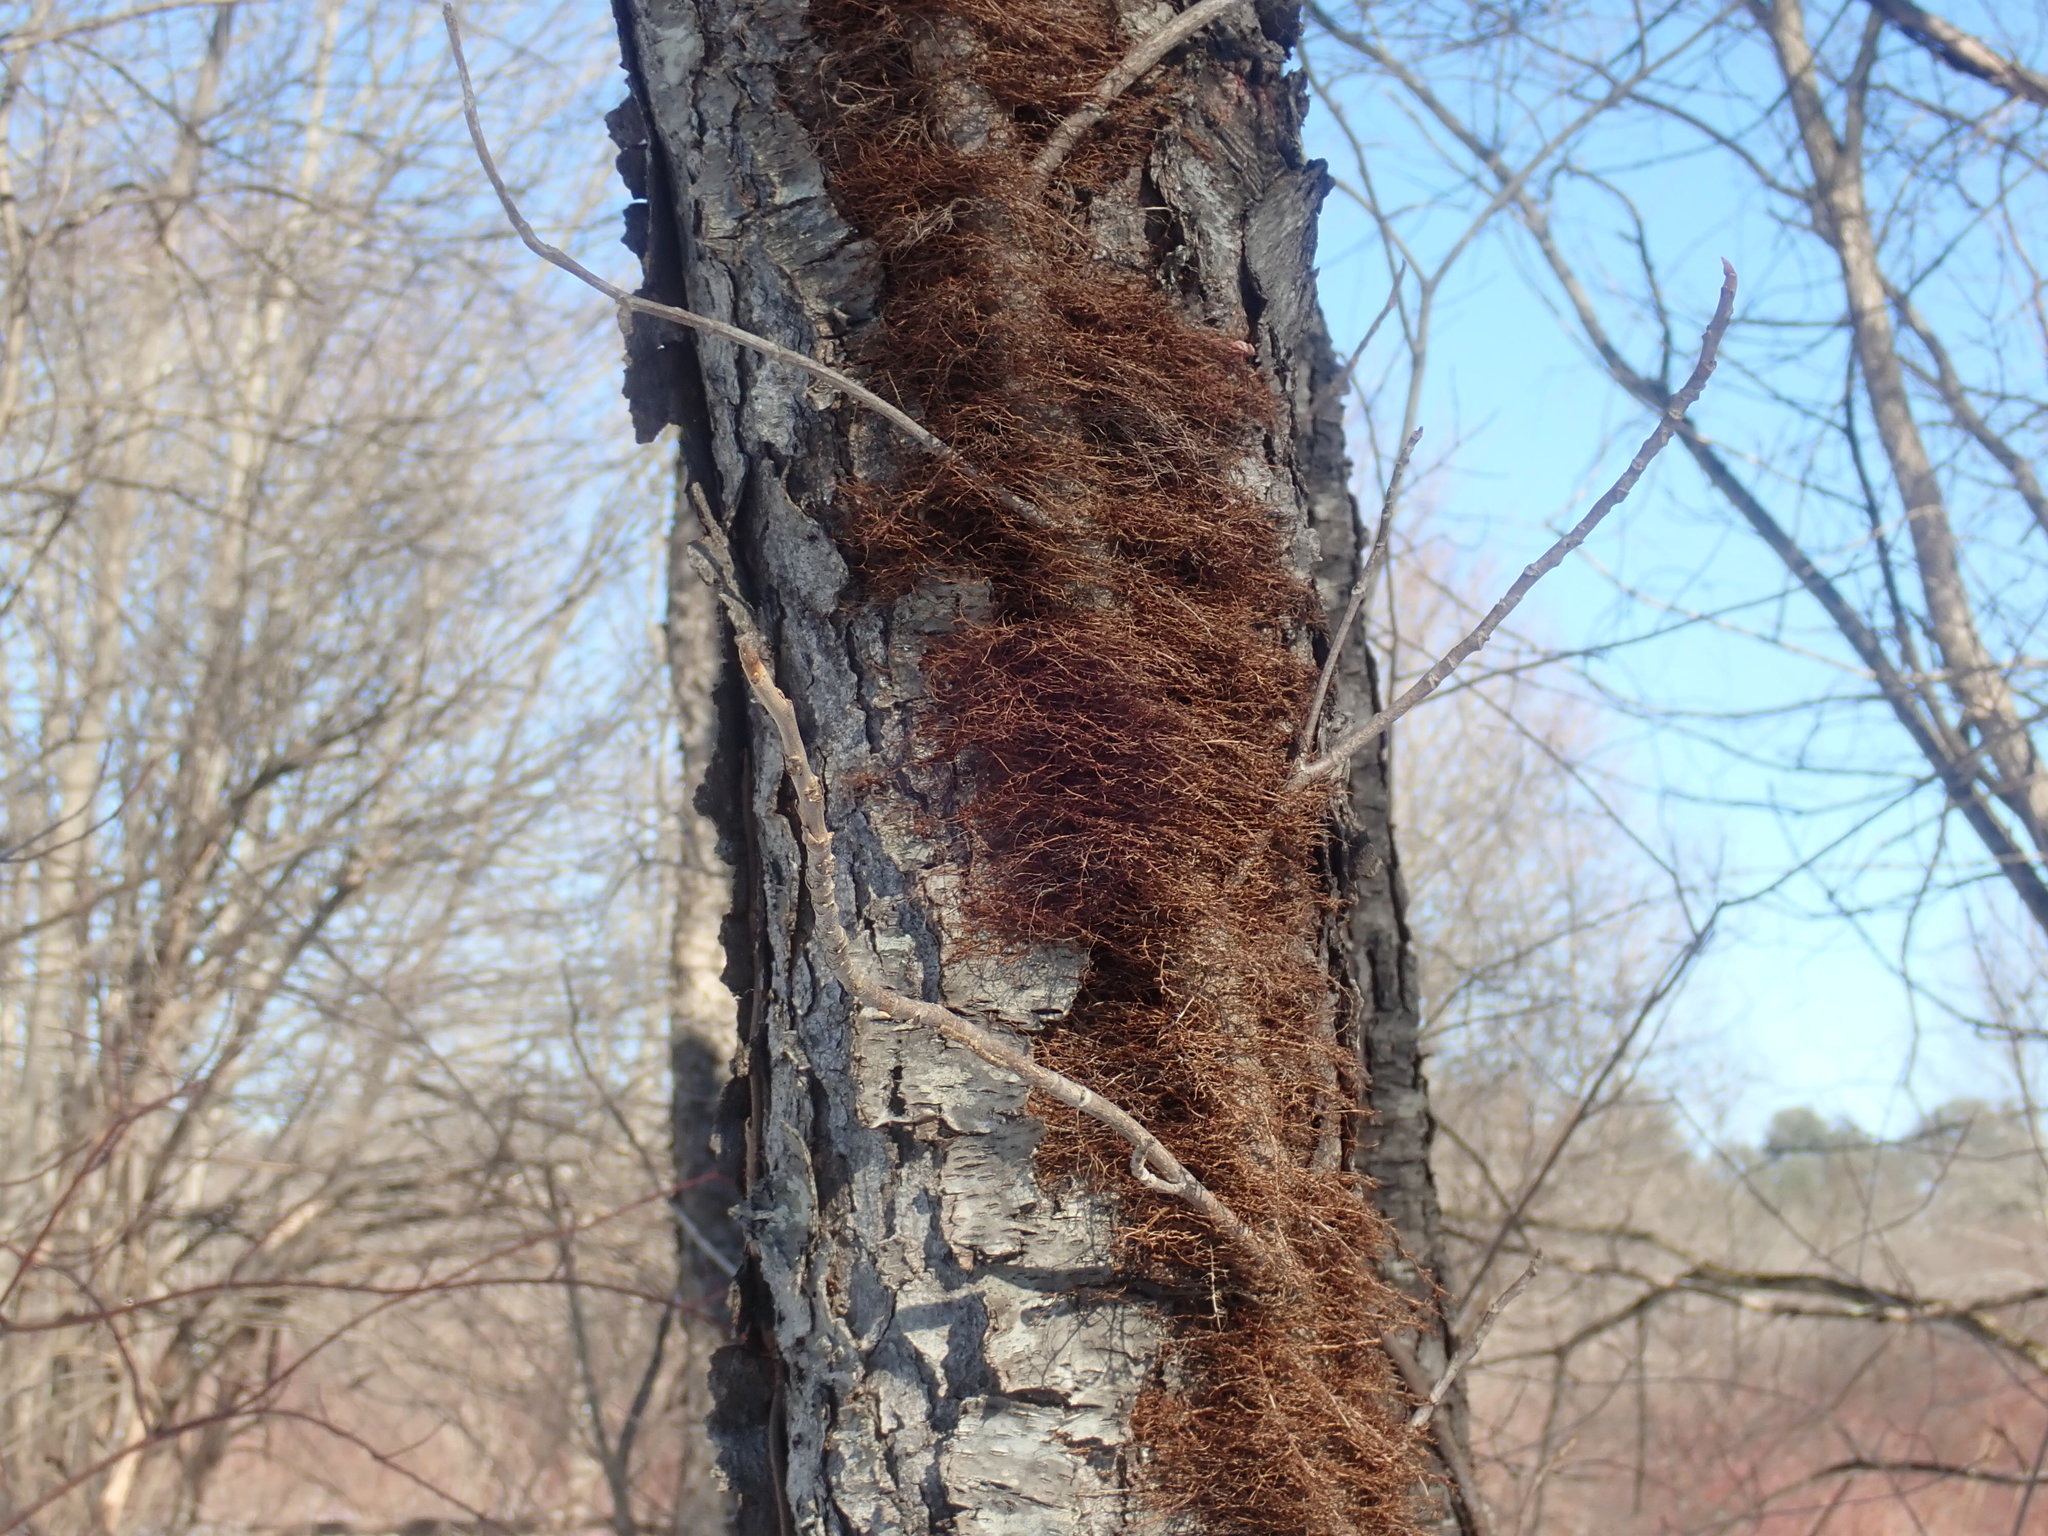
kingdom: Plantae
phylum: Tracheophyta
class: Magnoliopsida
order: Sapindales
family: Anacardiaceae
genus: Toxicodendron
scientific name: Toxicodendron radicans
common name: Poison ivy
